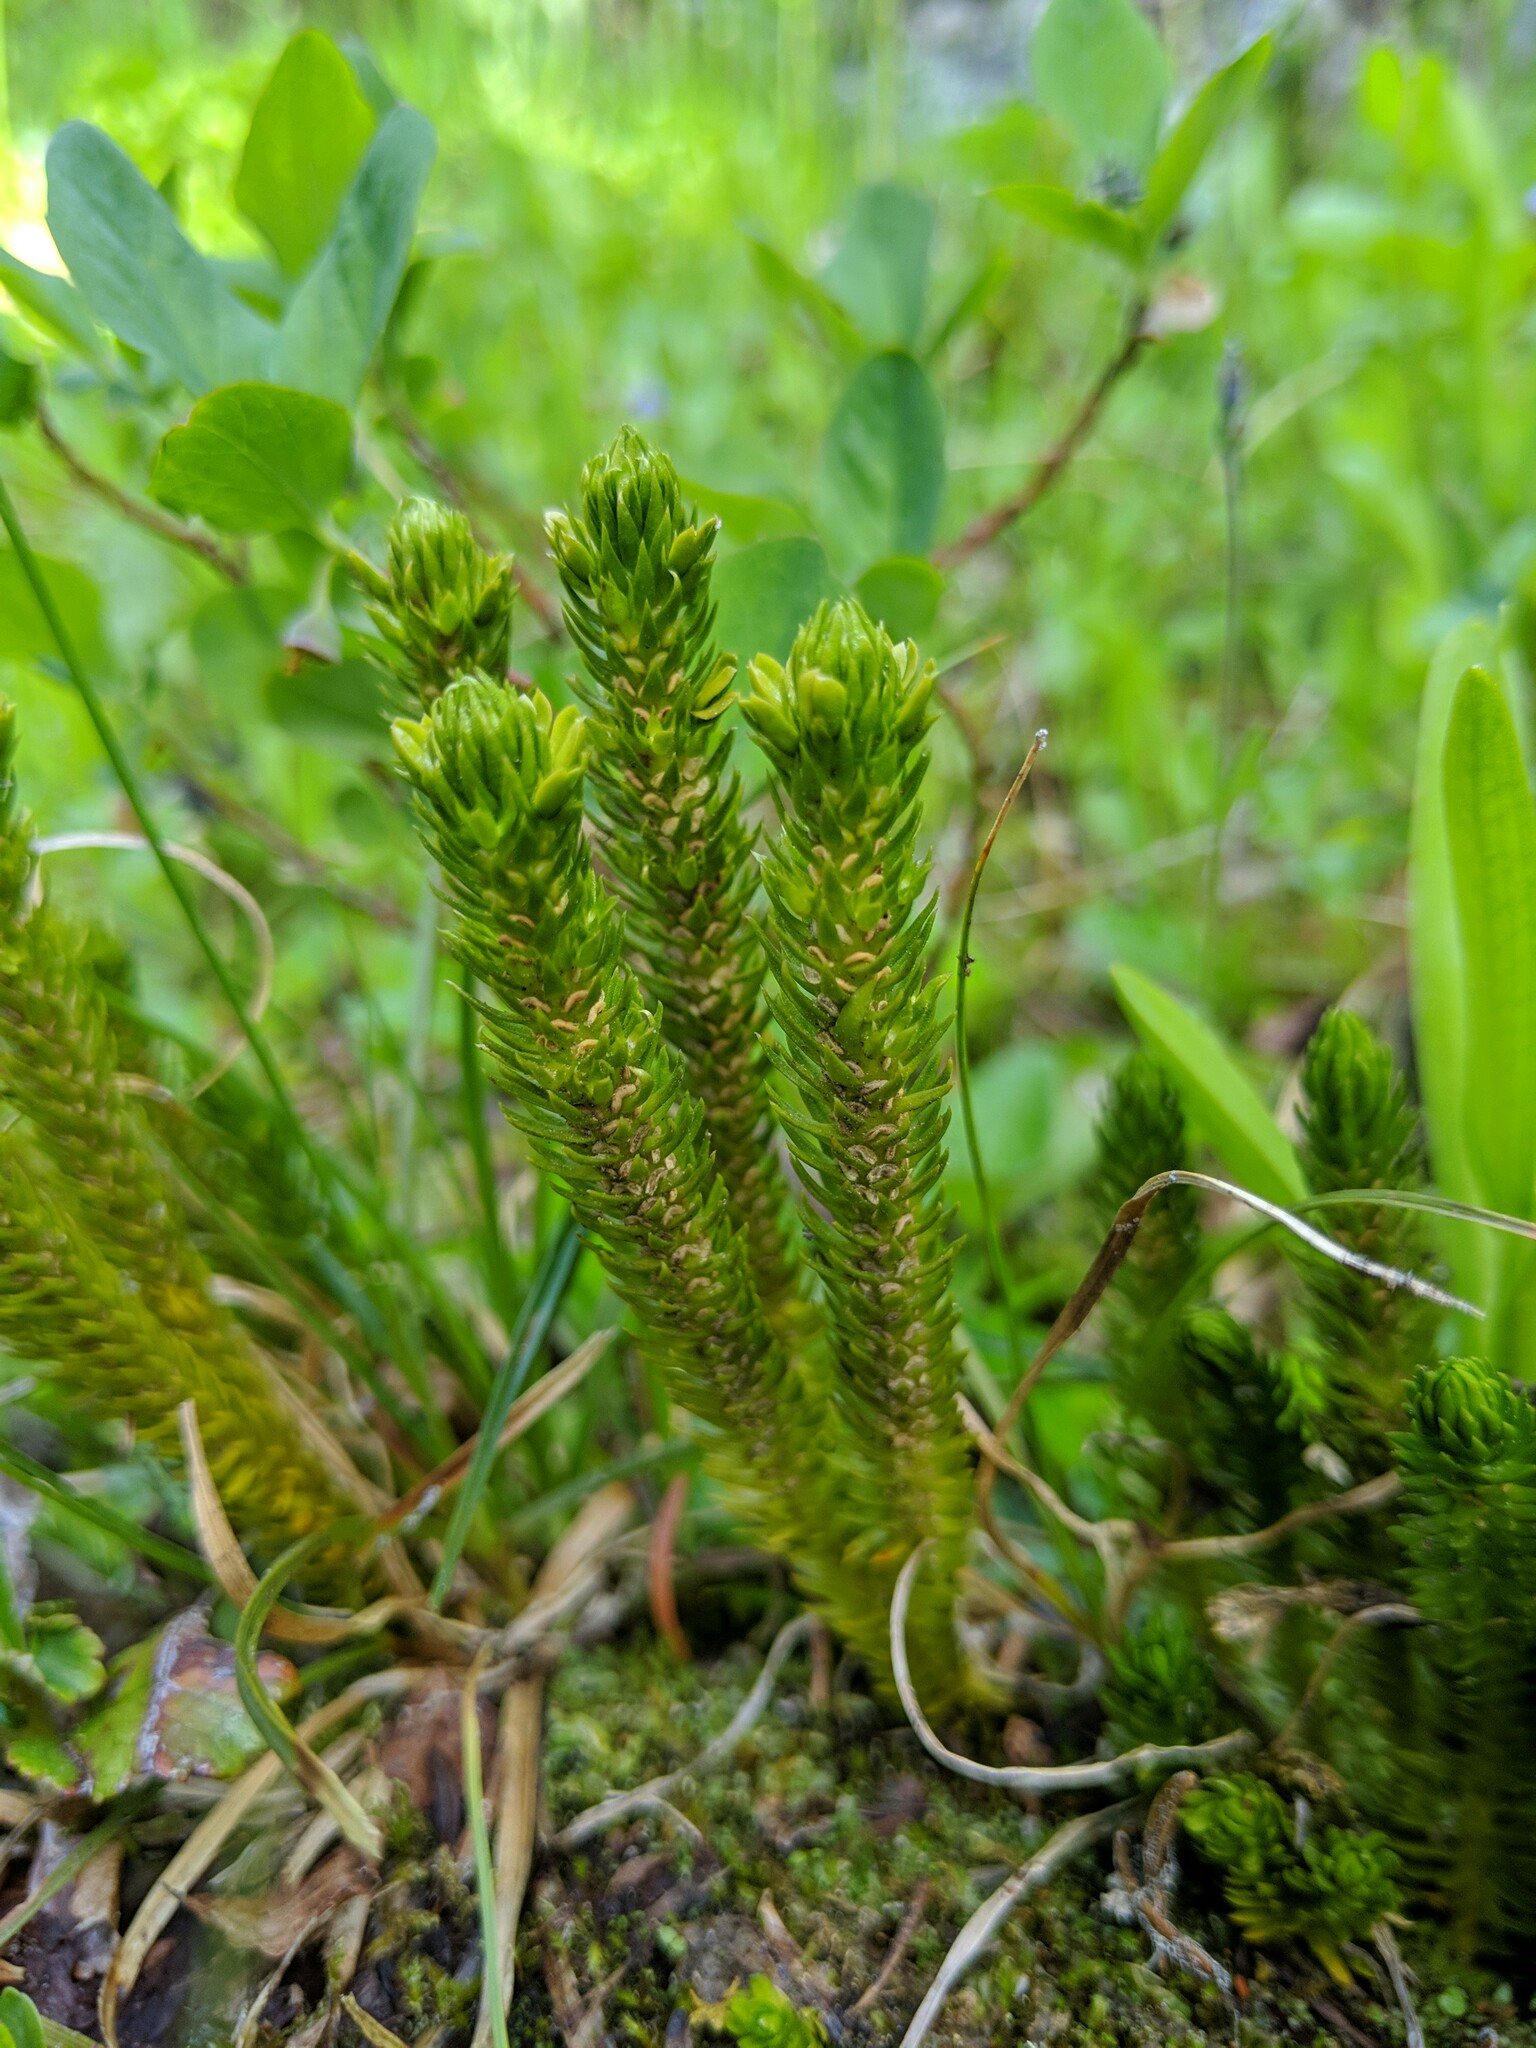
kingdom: Plantae
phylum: Tracheophyta
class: Lycopodiopsida
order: Lycopodiales
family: Lycopodiaceae
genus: Huperzia
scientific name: Huperzia continentalis
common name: Continental firmoss
